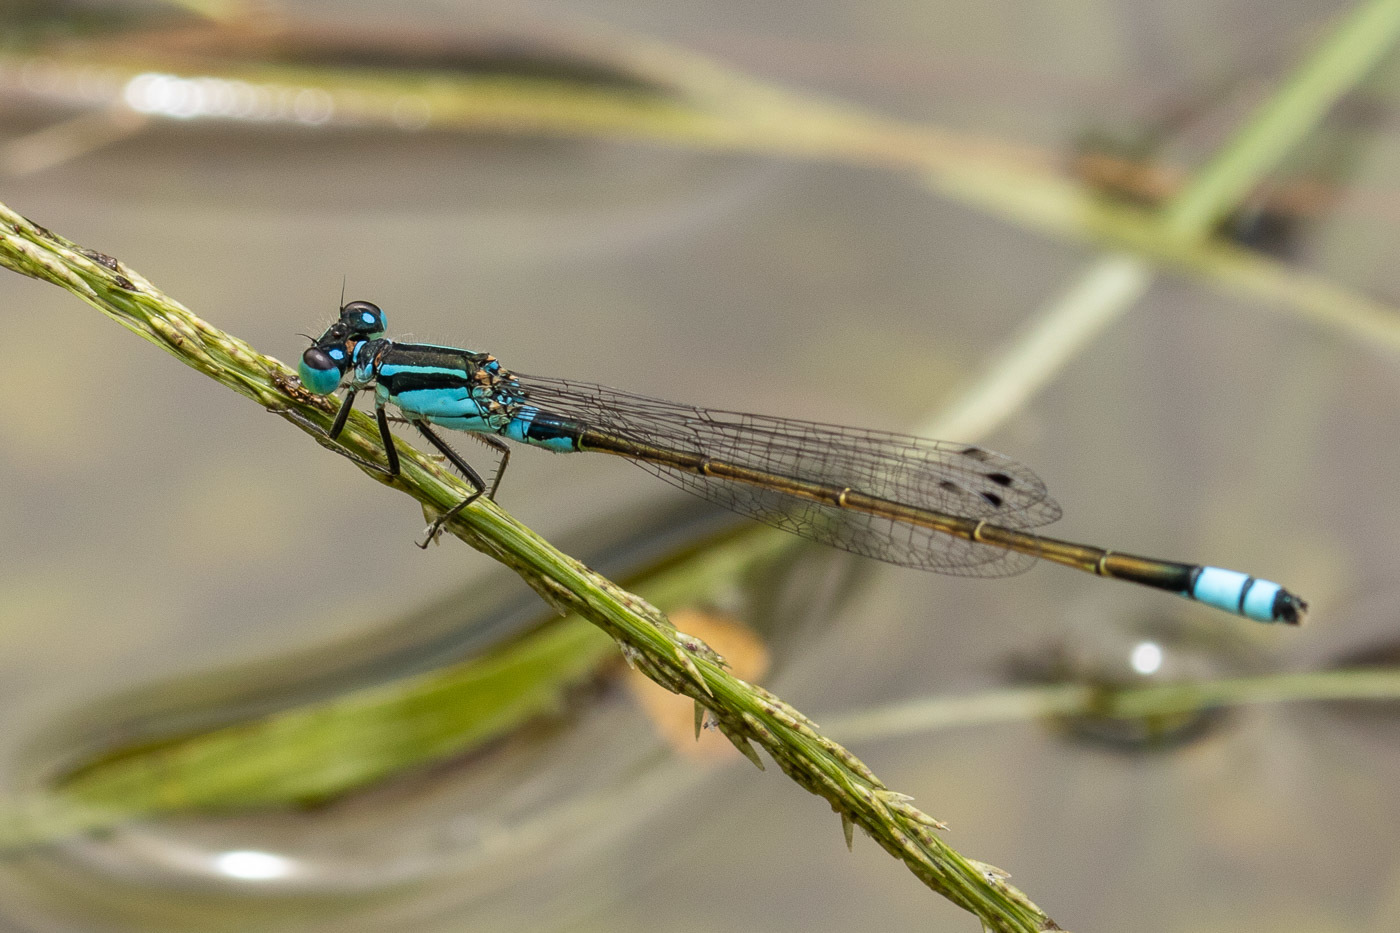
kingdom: Animalia
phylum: Arthropoda
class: Insecta
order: Odonata
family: Coenagrionidae
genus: Ischnura
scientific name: Ischnura heterosticta
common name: Common bluetail
